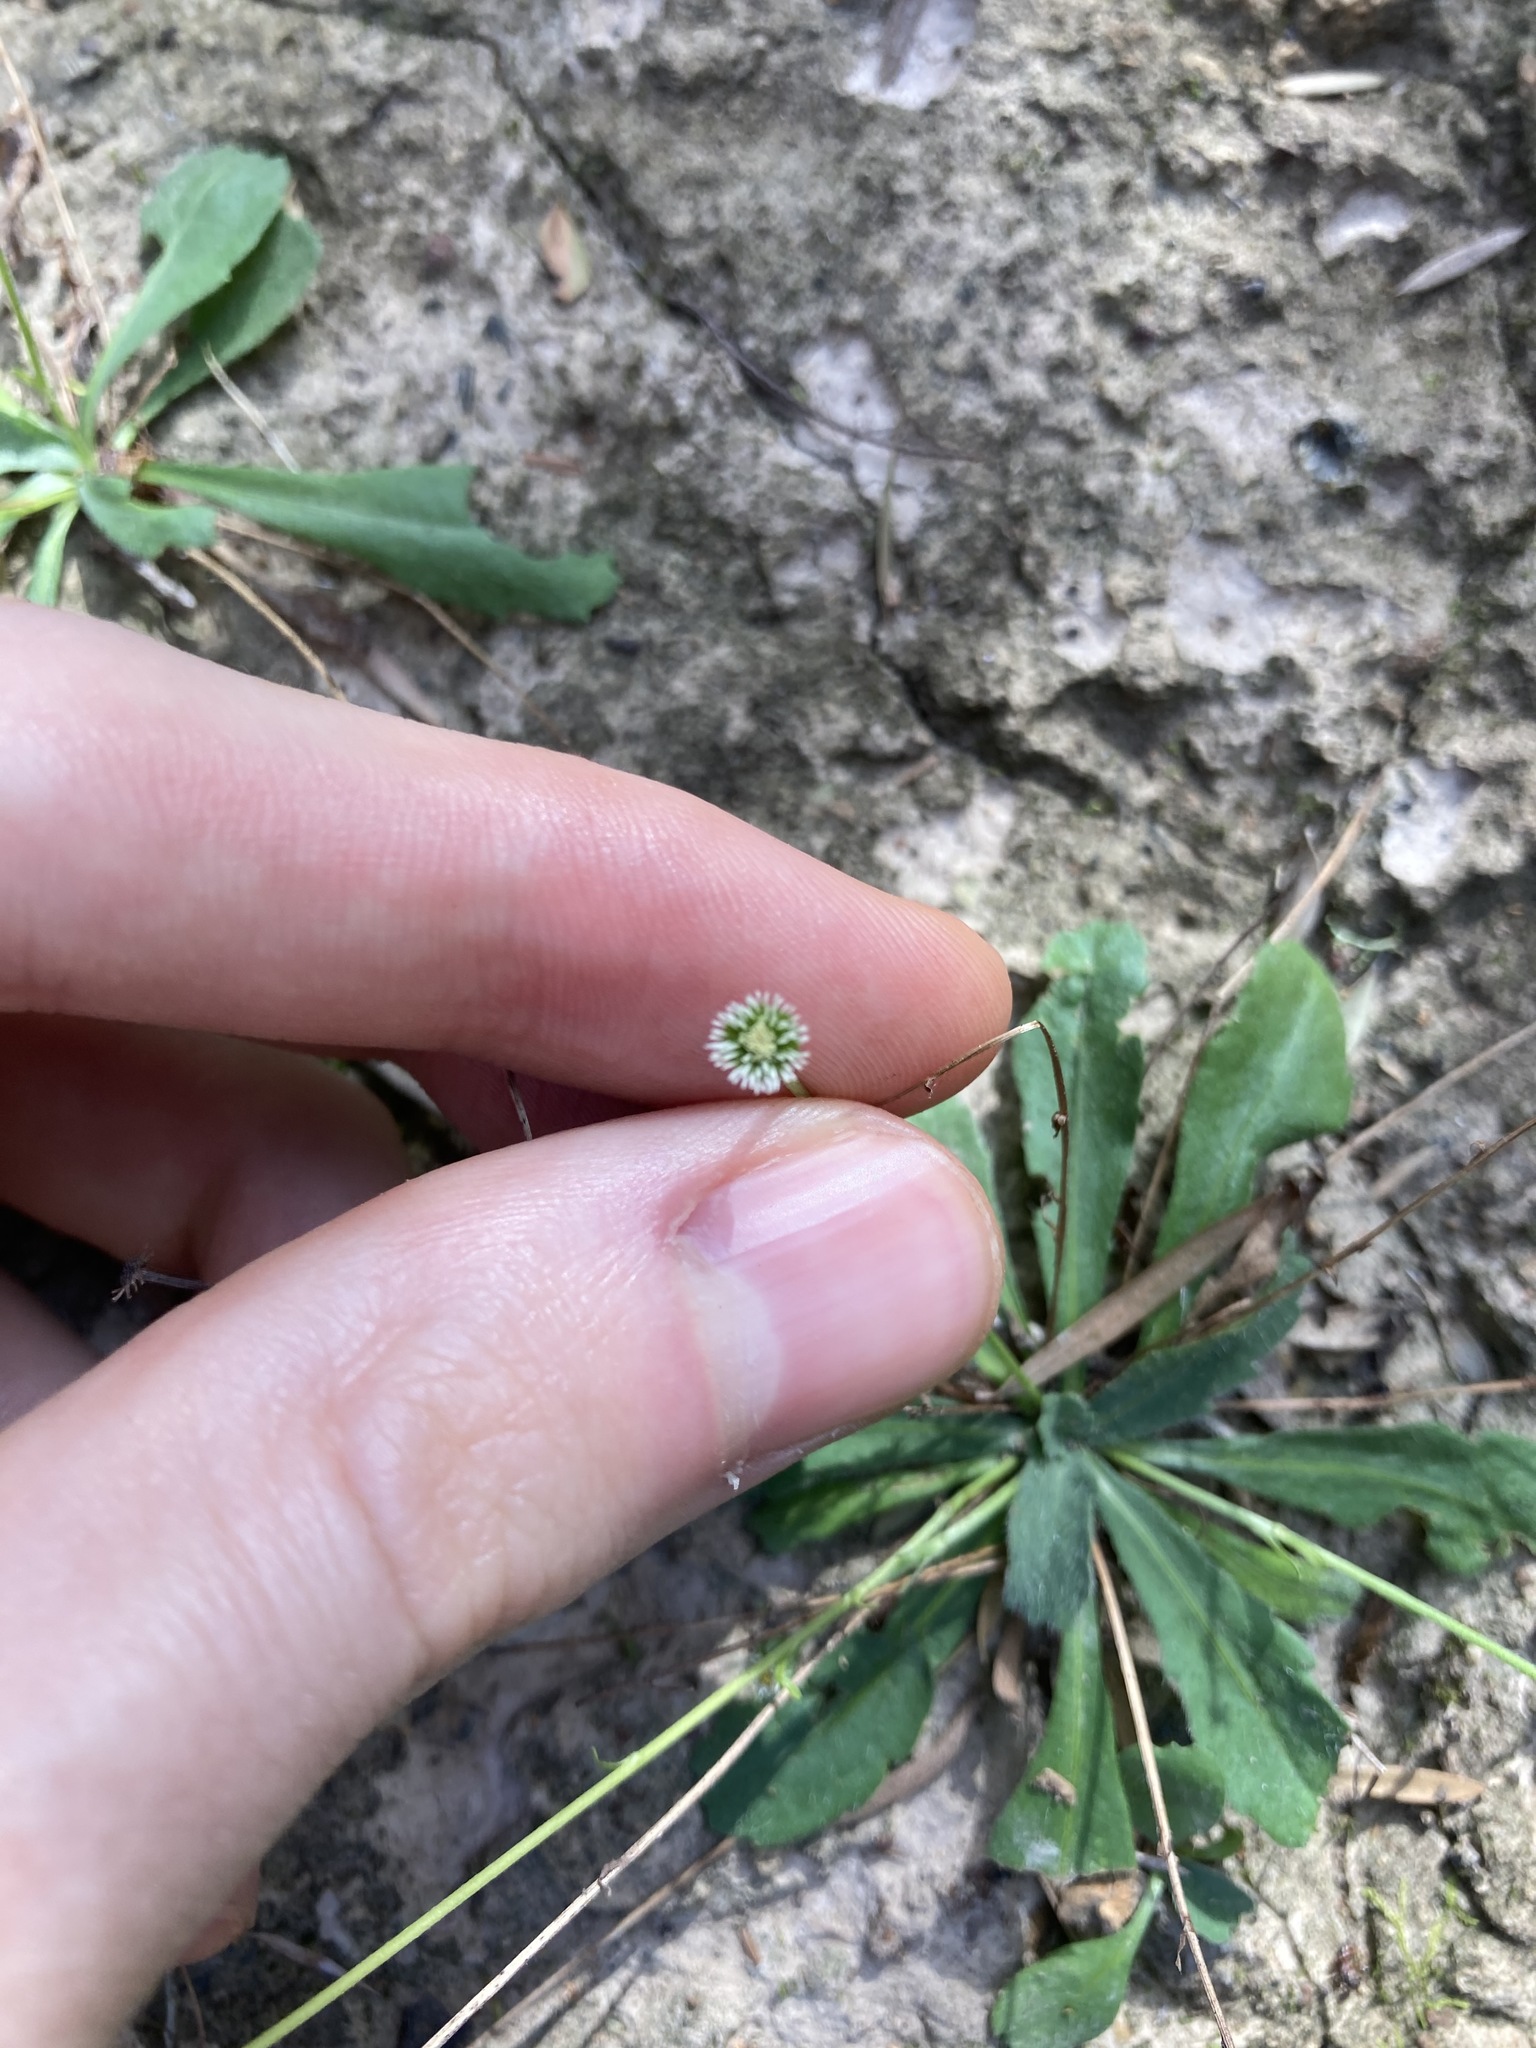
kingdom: Plantae
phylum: Tracheophyta
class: Magnoliopsida
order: Asterales
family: Asteraceae
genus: Solenogyne
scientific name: Solenogyne bellioides
